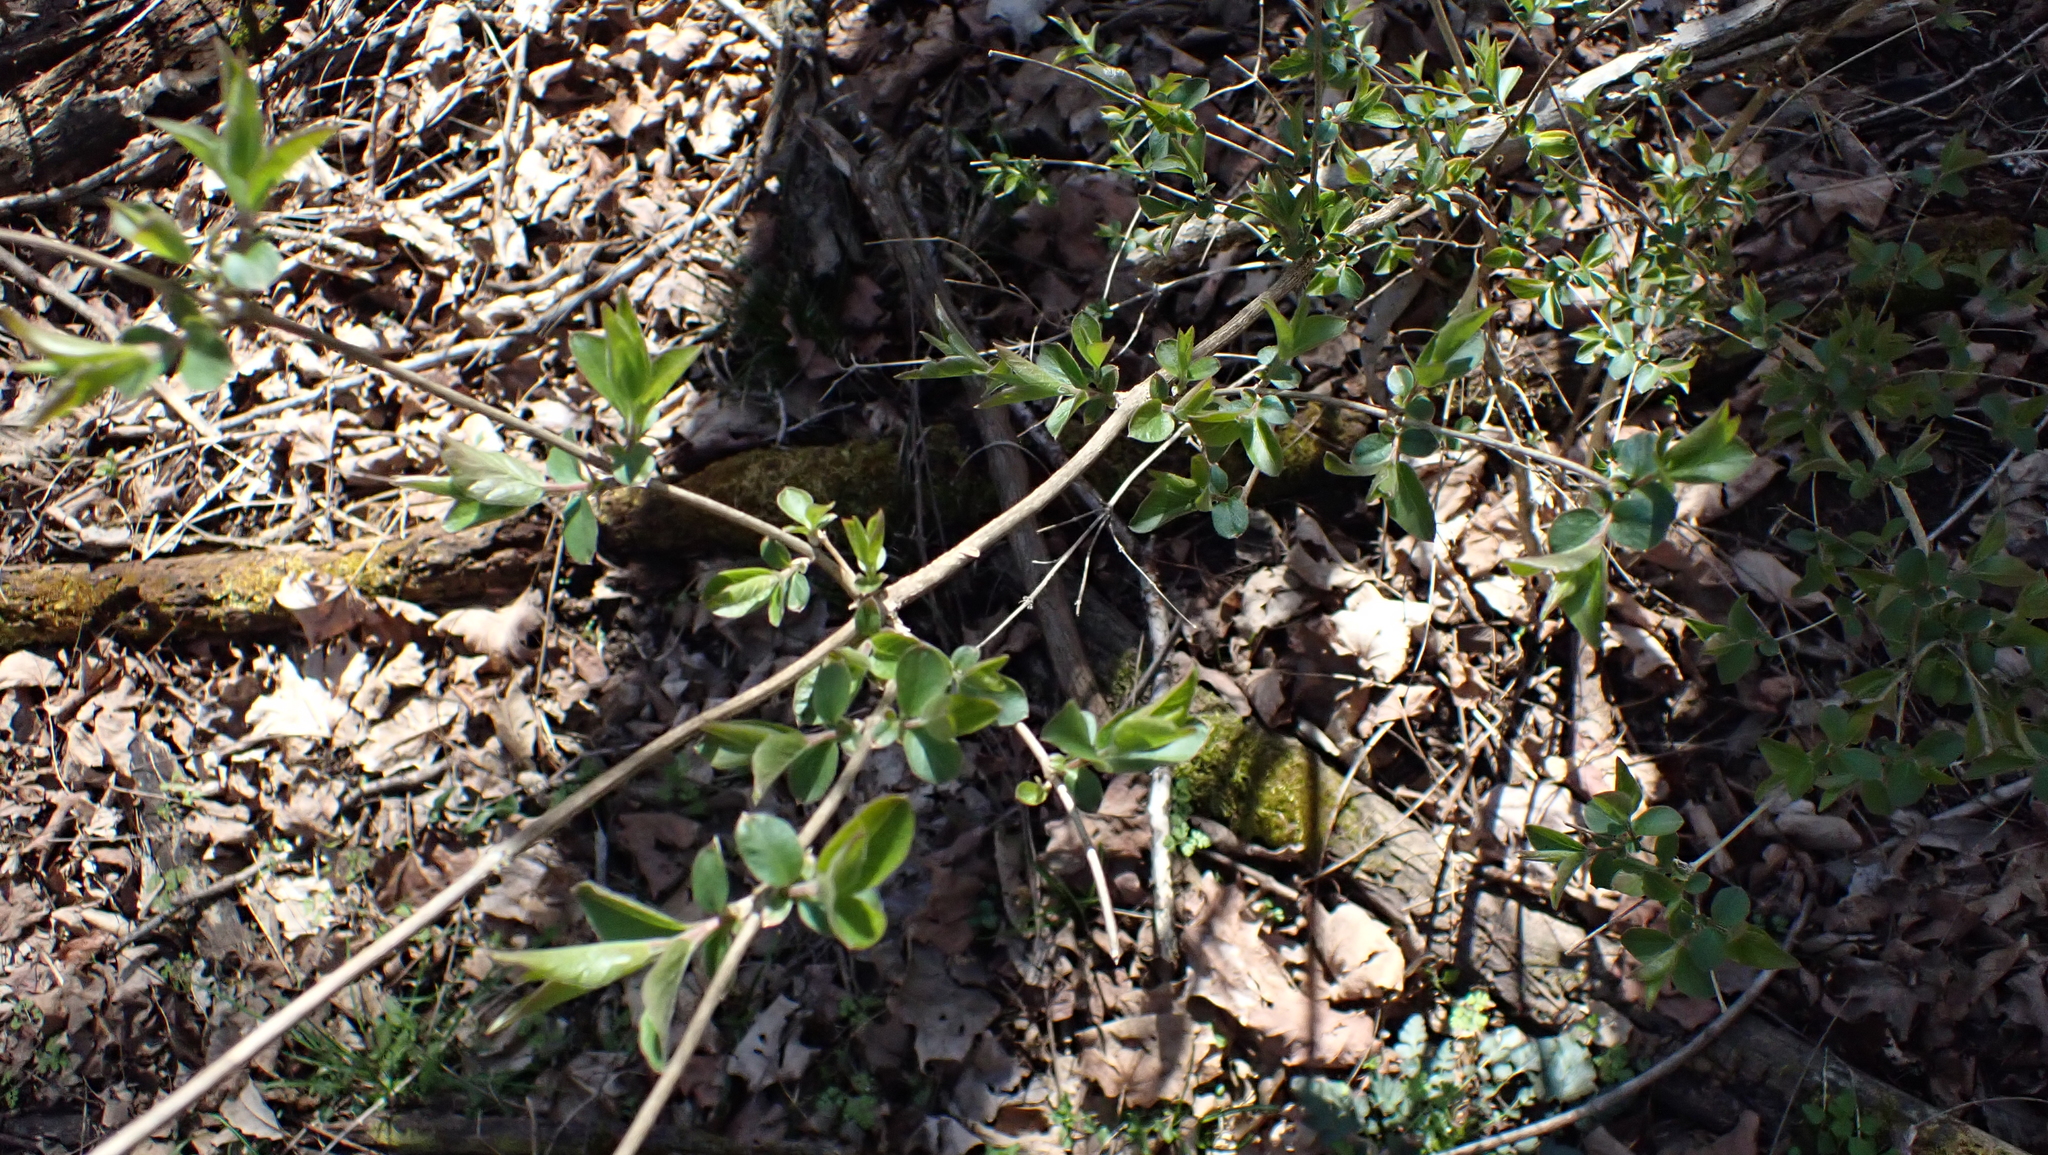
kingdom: Plantae
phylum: Tracheophyta
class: Magnoliopsida
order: Dipsacales
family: Caprifoliaceae
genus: Lonicera
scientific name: Lonicera maackii
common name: Amur honeysuckle
